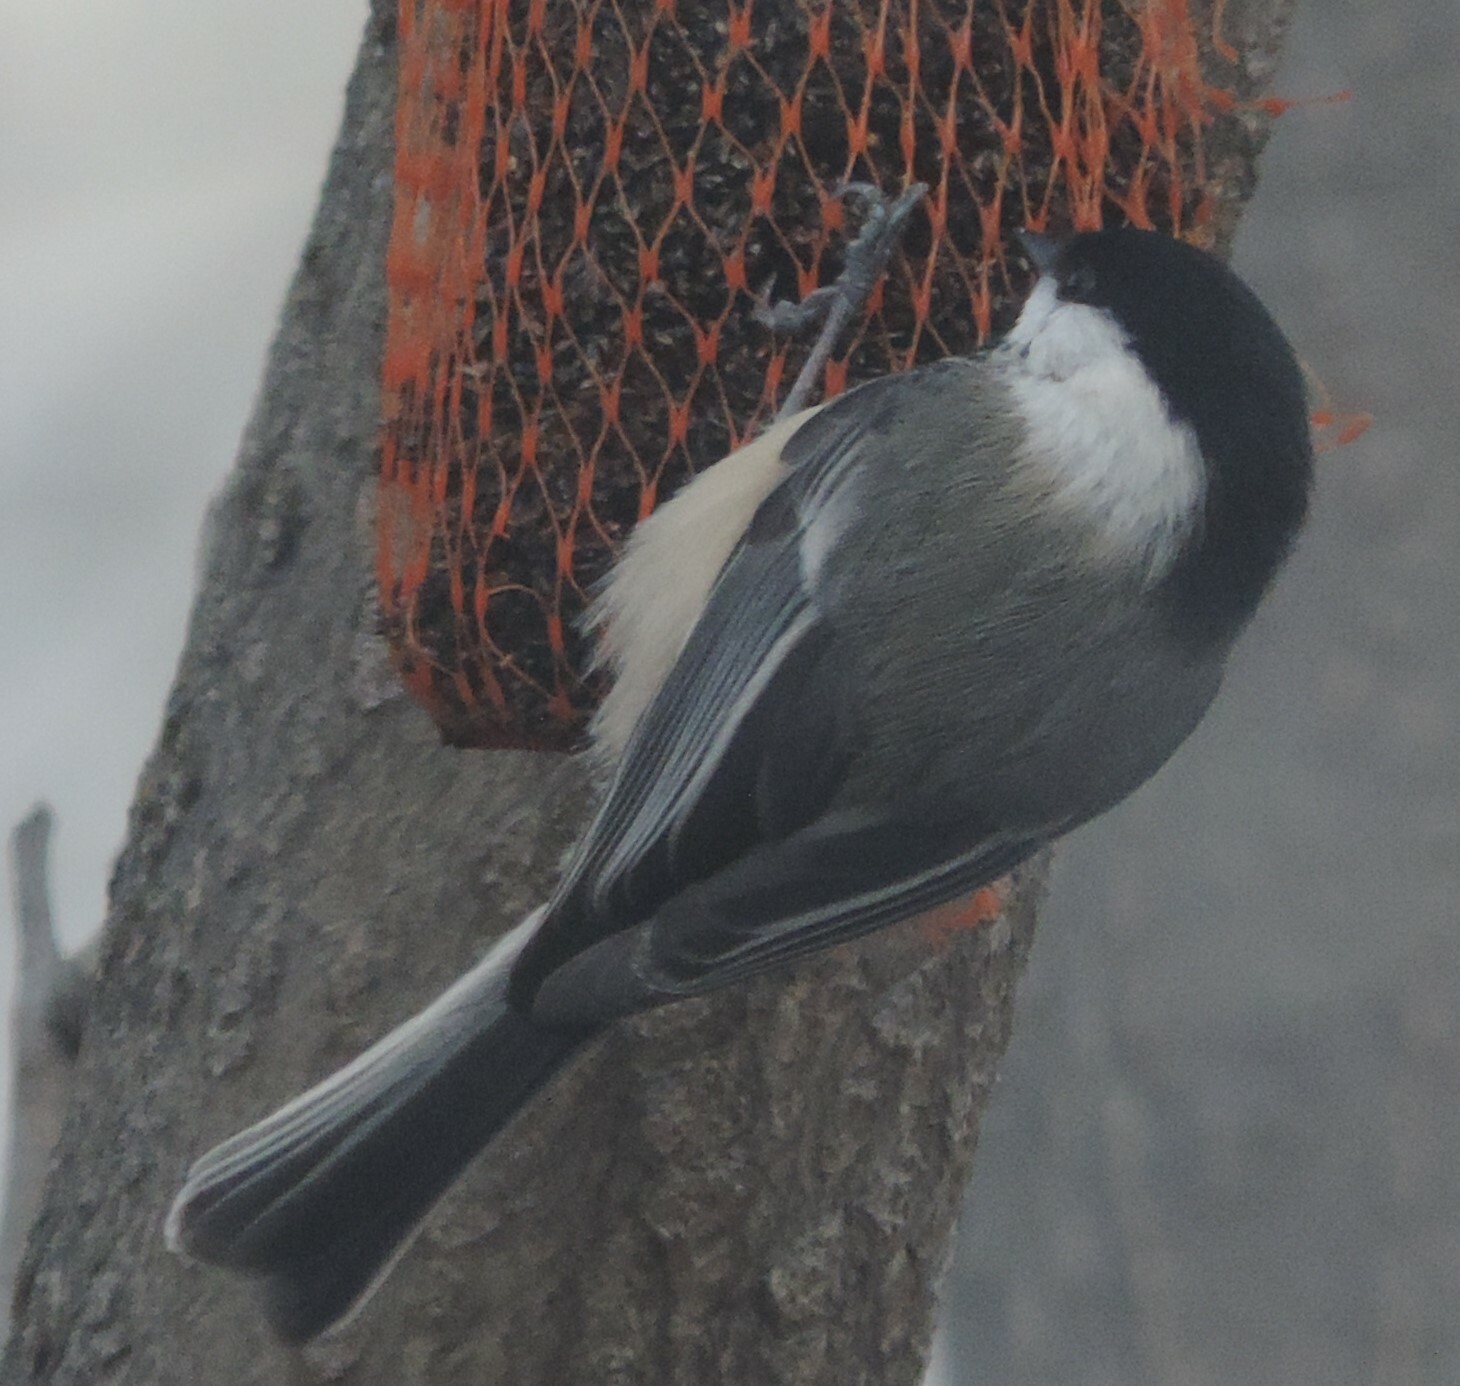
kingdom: Animalia
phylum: Chordata
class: Aves
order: Passeriformes
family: Paridae
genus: Poecile
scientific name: Poecile atricapillus
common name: Black-capped chickadee
